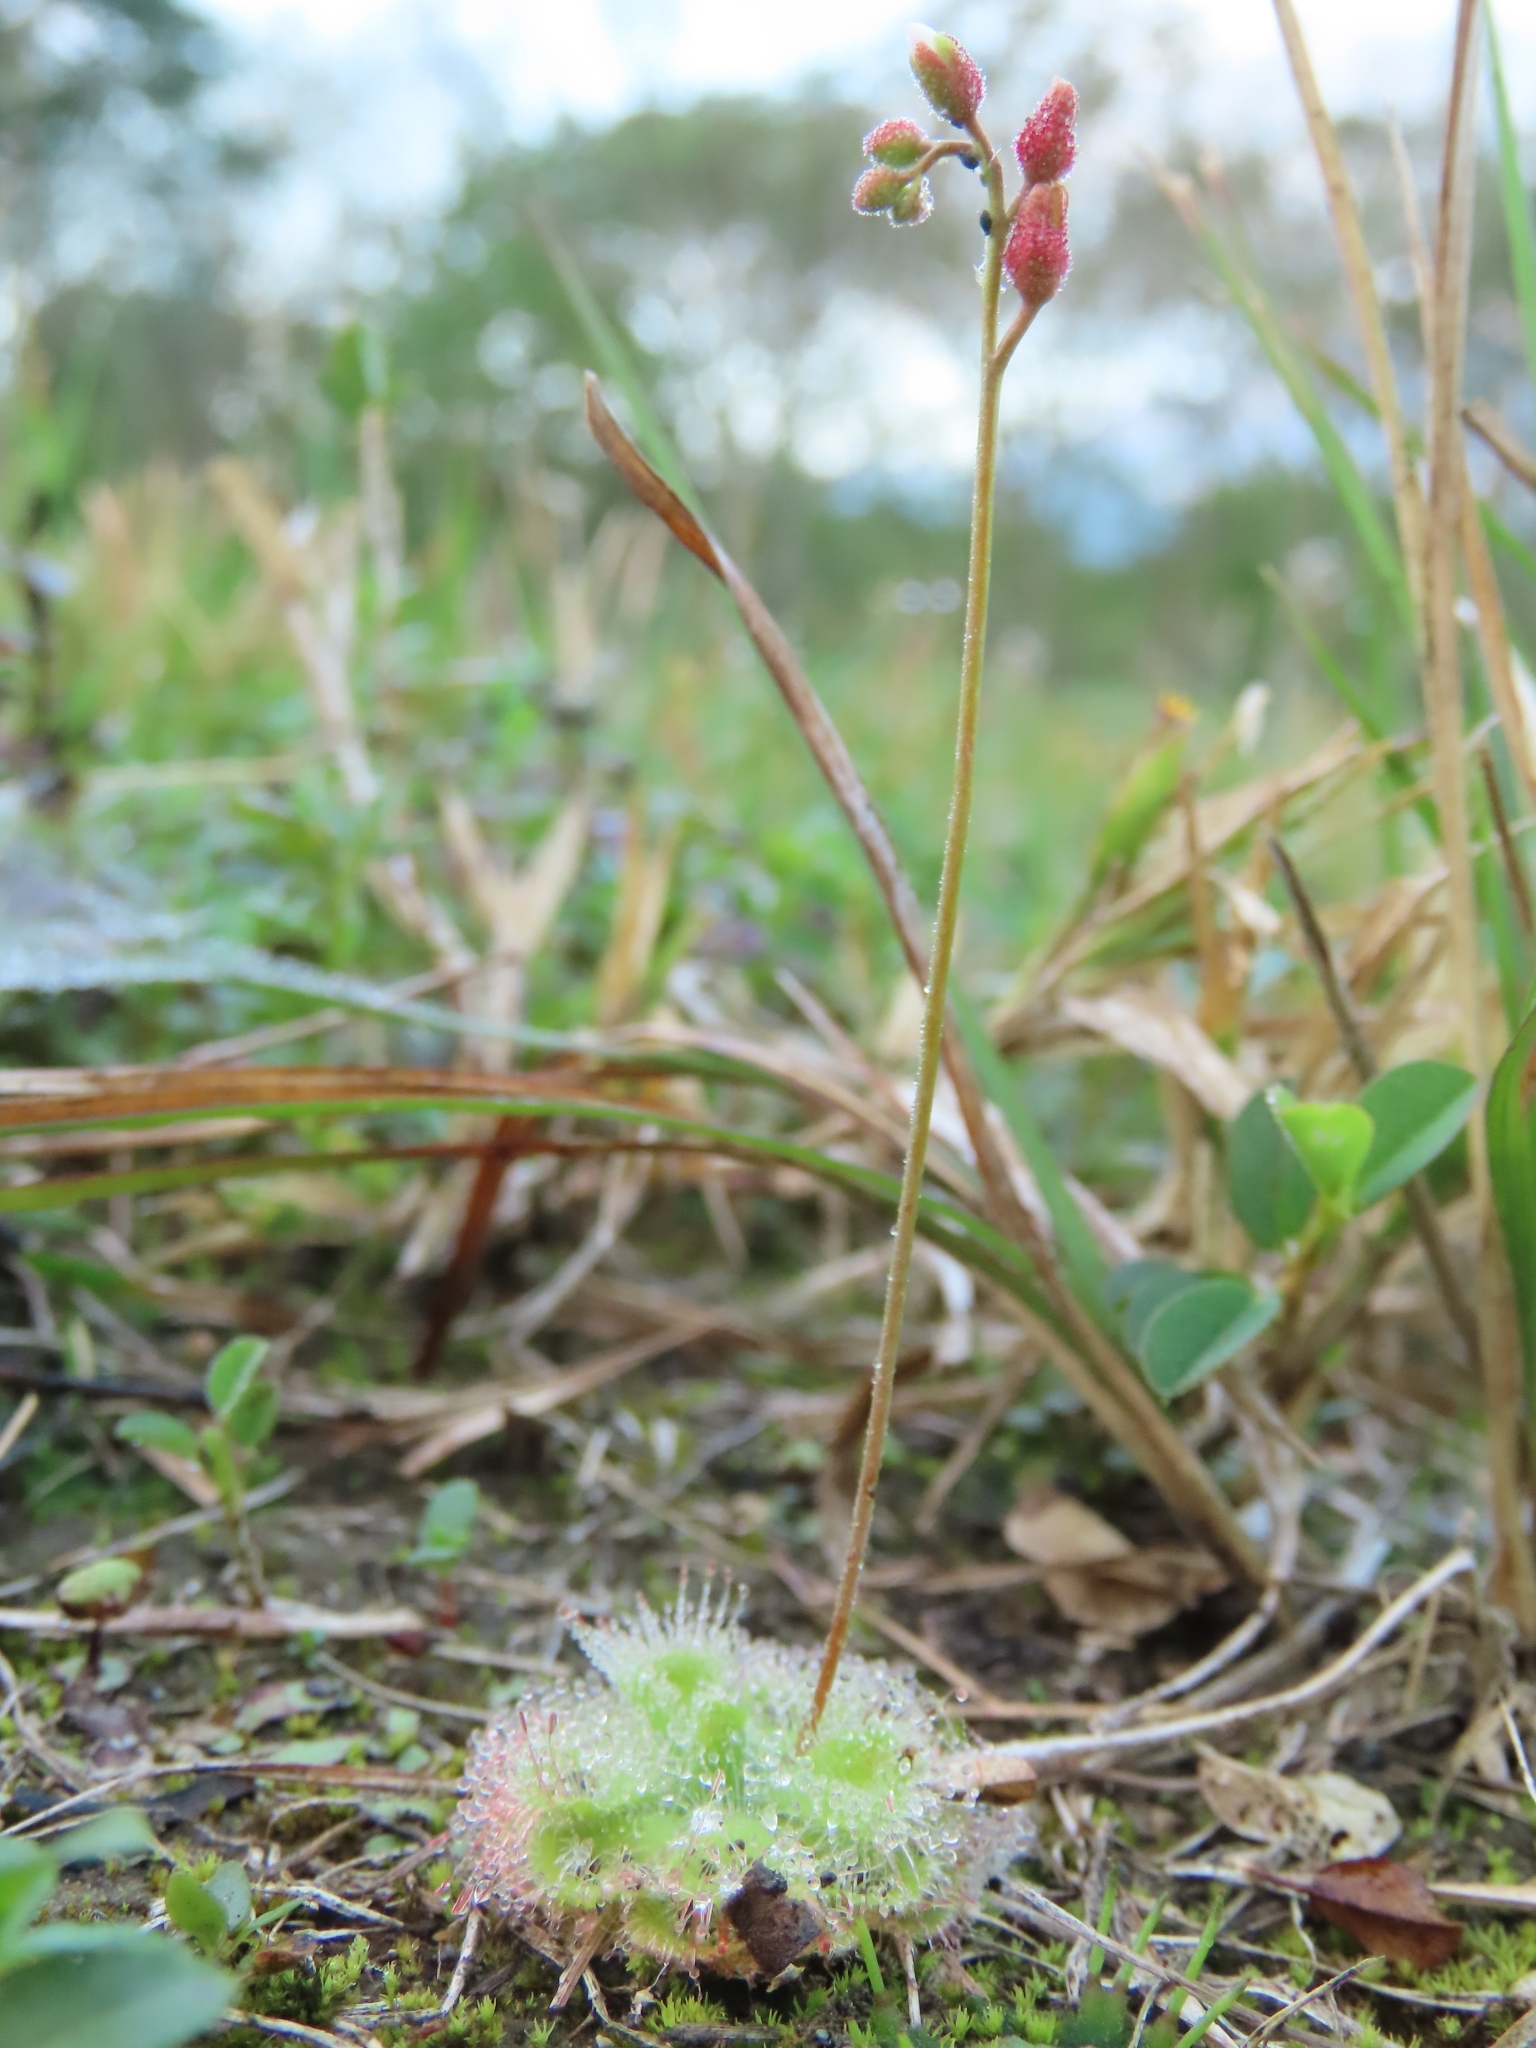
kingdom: Plantae
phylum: Tracheophyta
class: Magnoliopsida
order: Caryophyllales
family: Droseraceae
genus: Drosera
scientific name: Drosera spatulata
